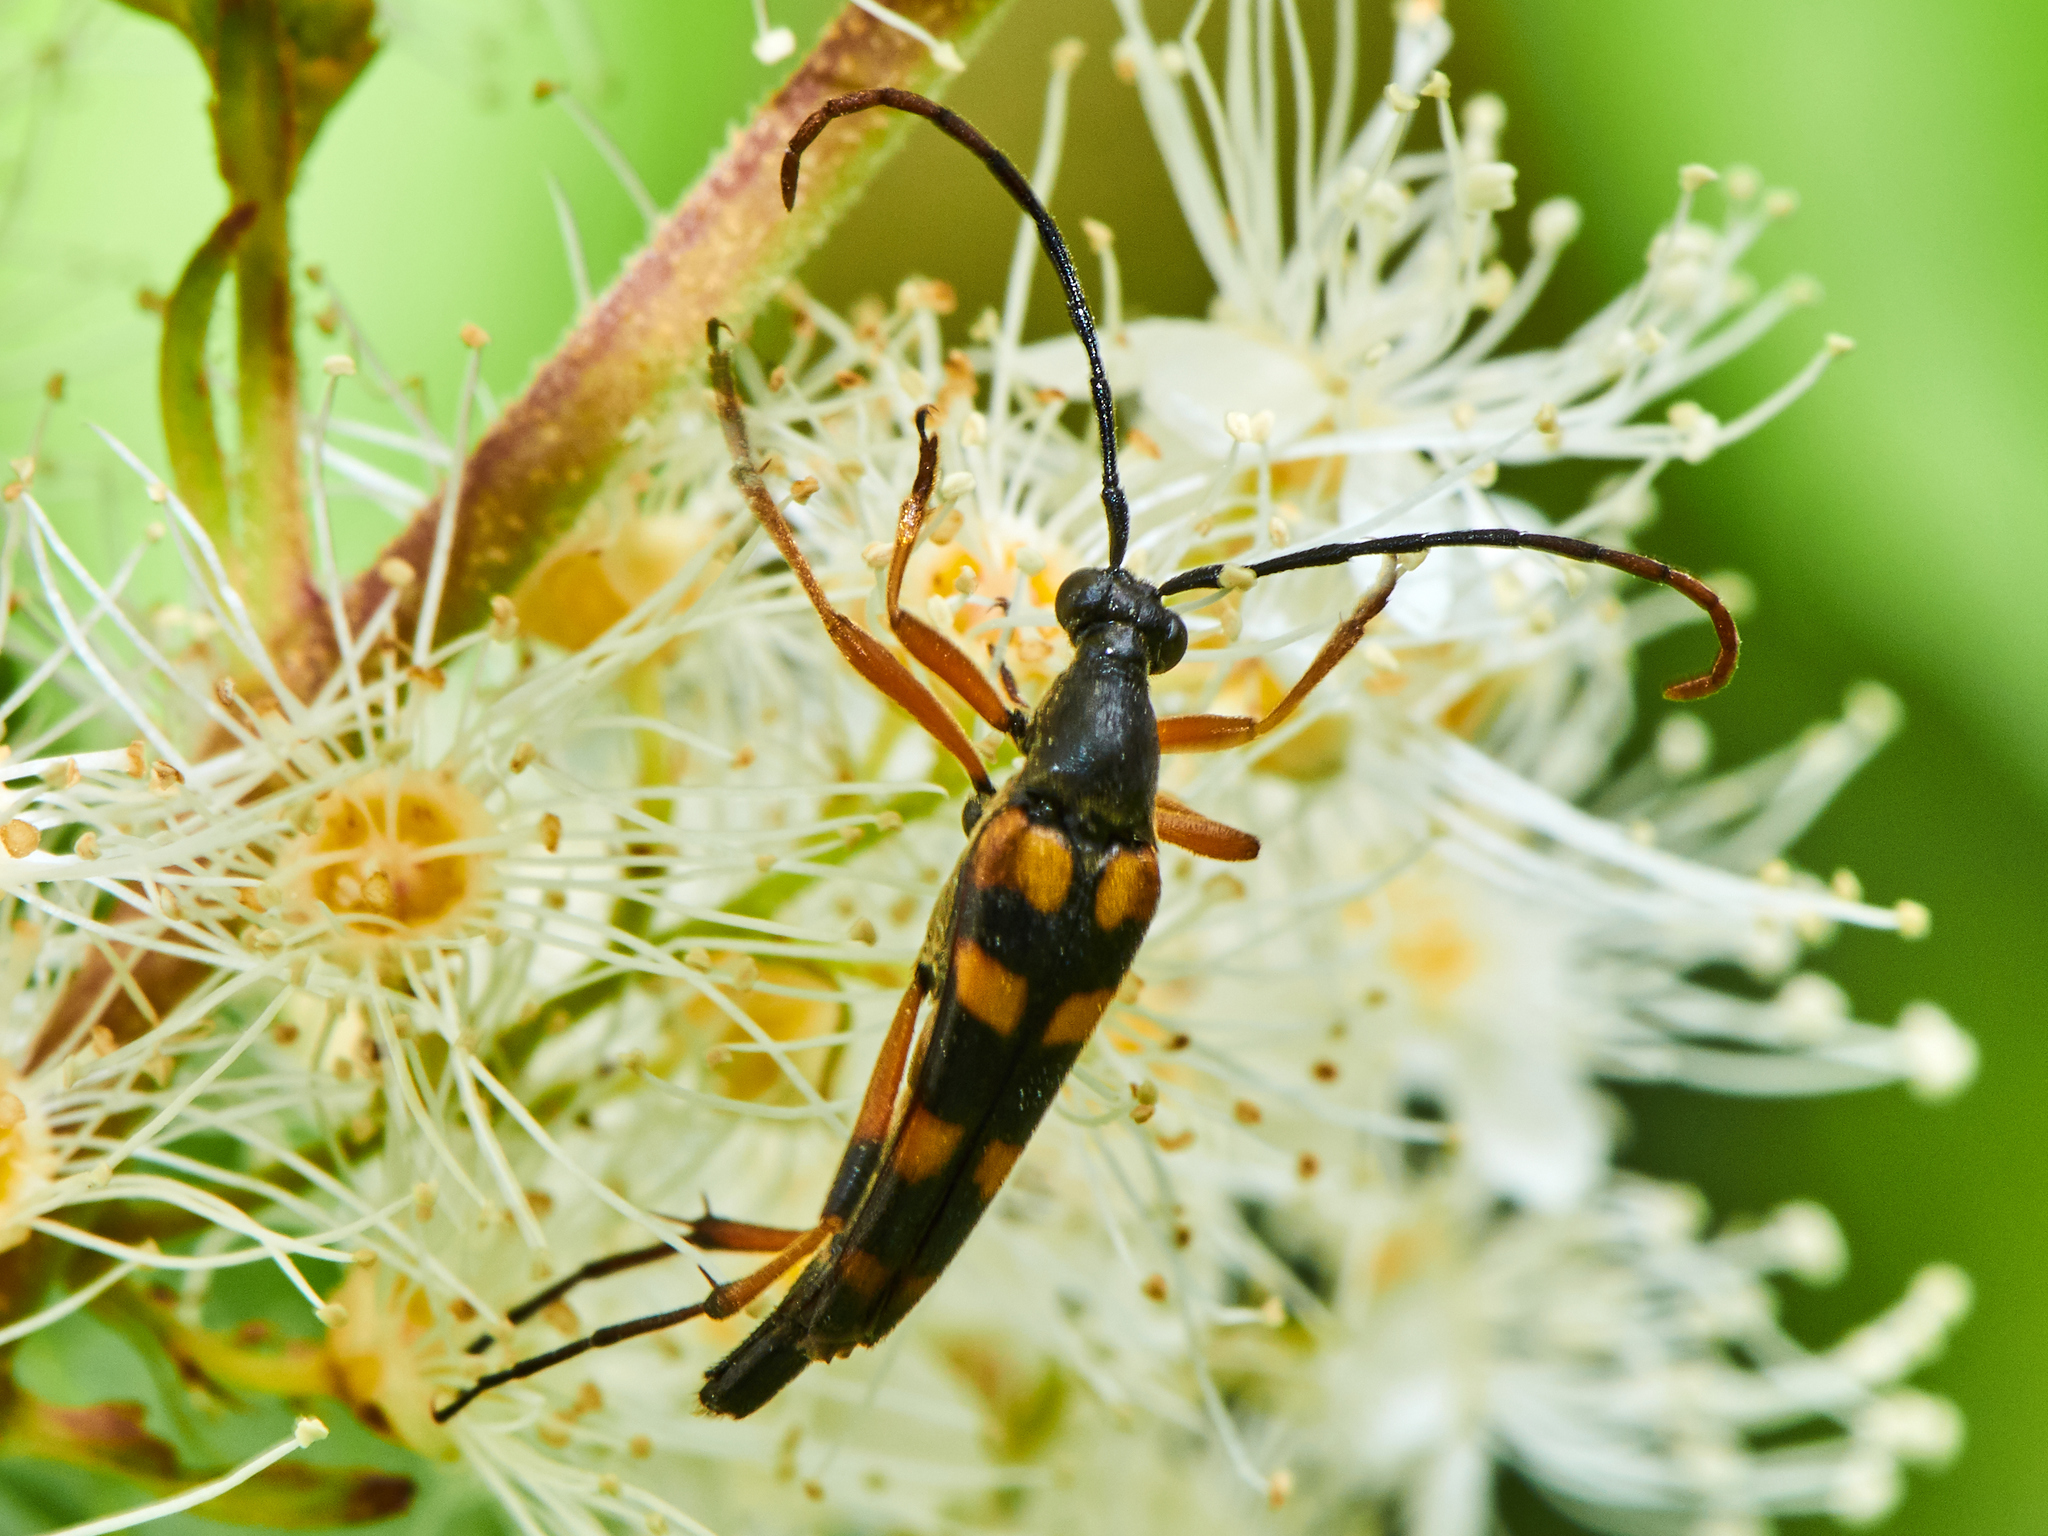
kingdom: Animalia
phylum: Arthropoda
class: Insecta
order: Coleoptera
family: Cerambycidae
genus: Strangalia
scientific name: Strangalia attenuata
